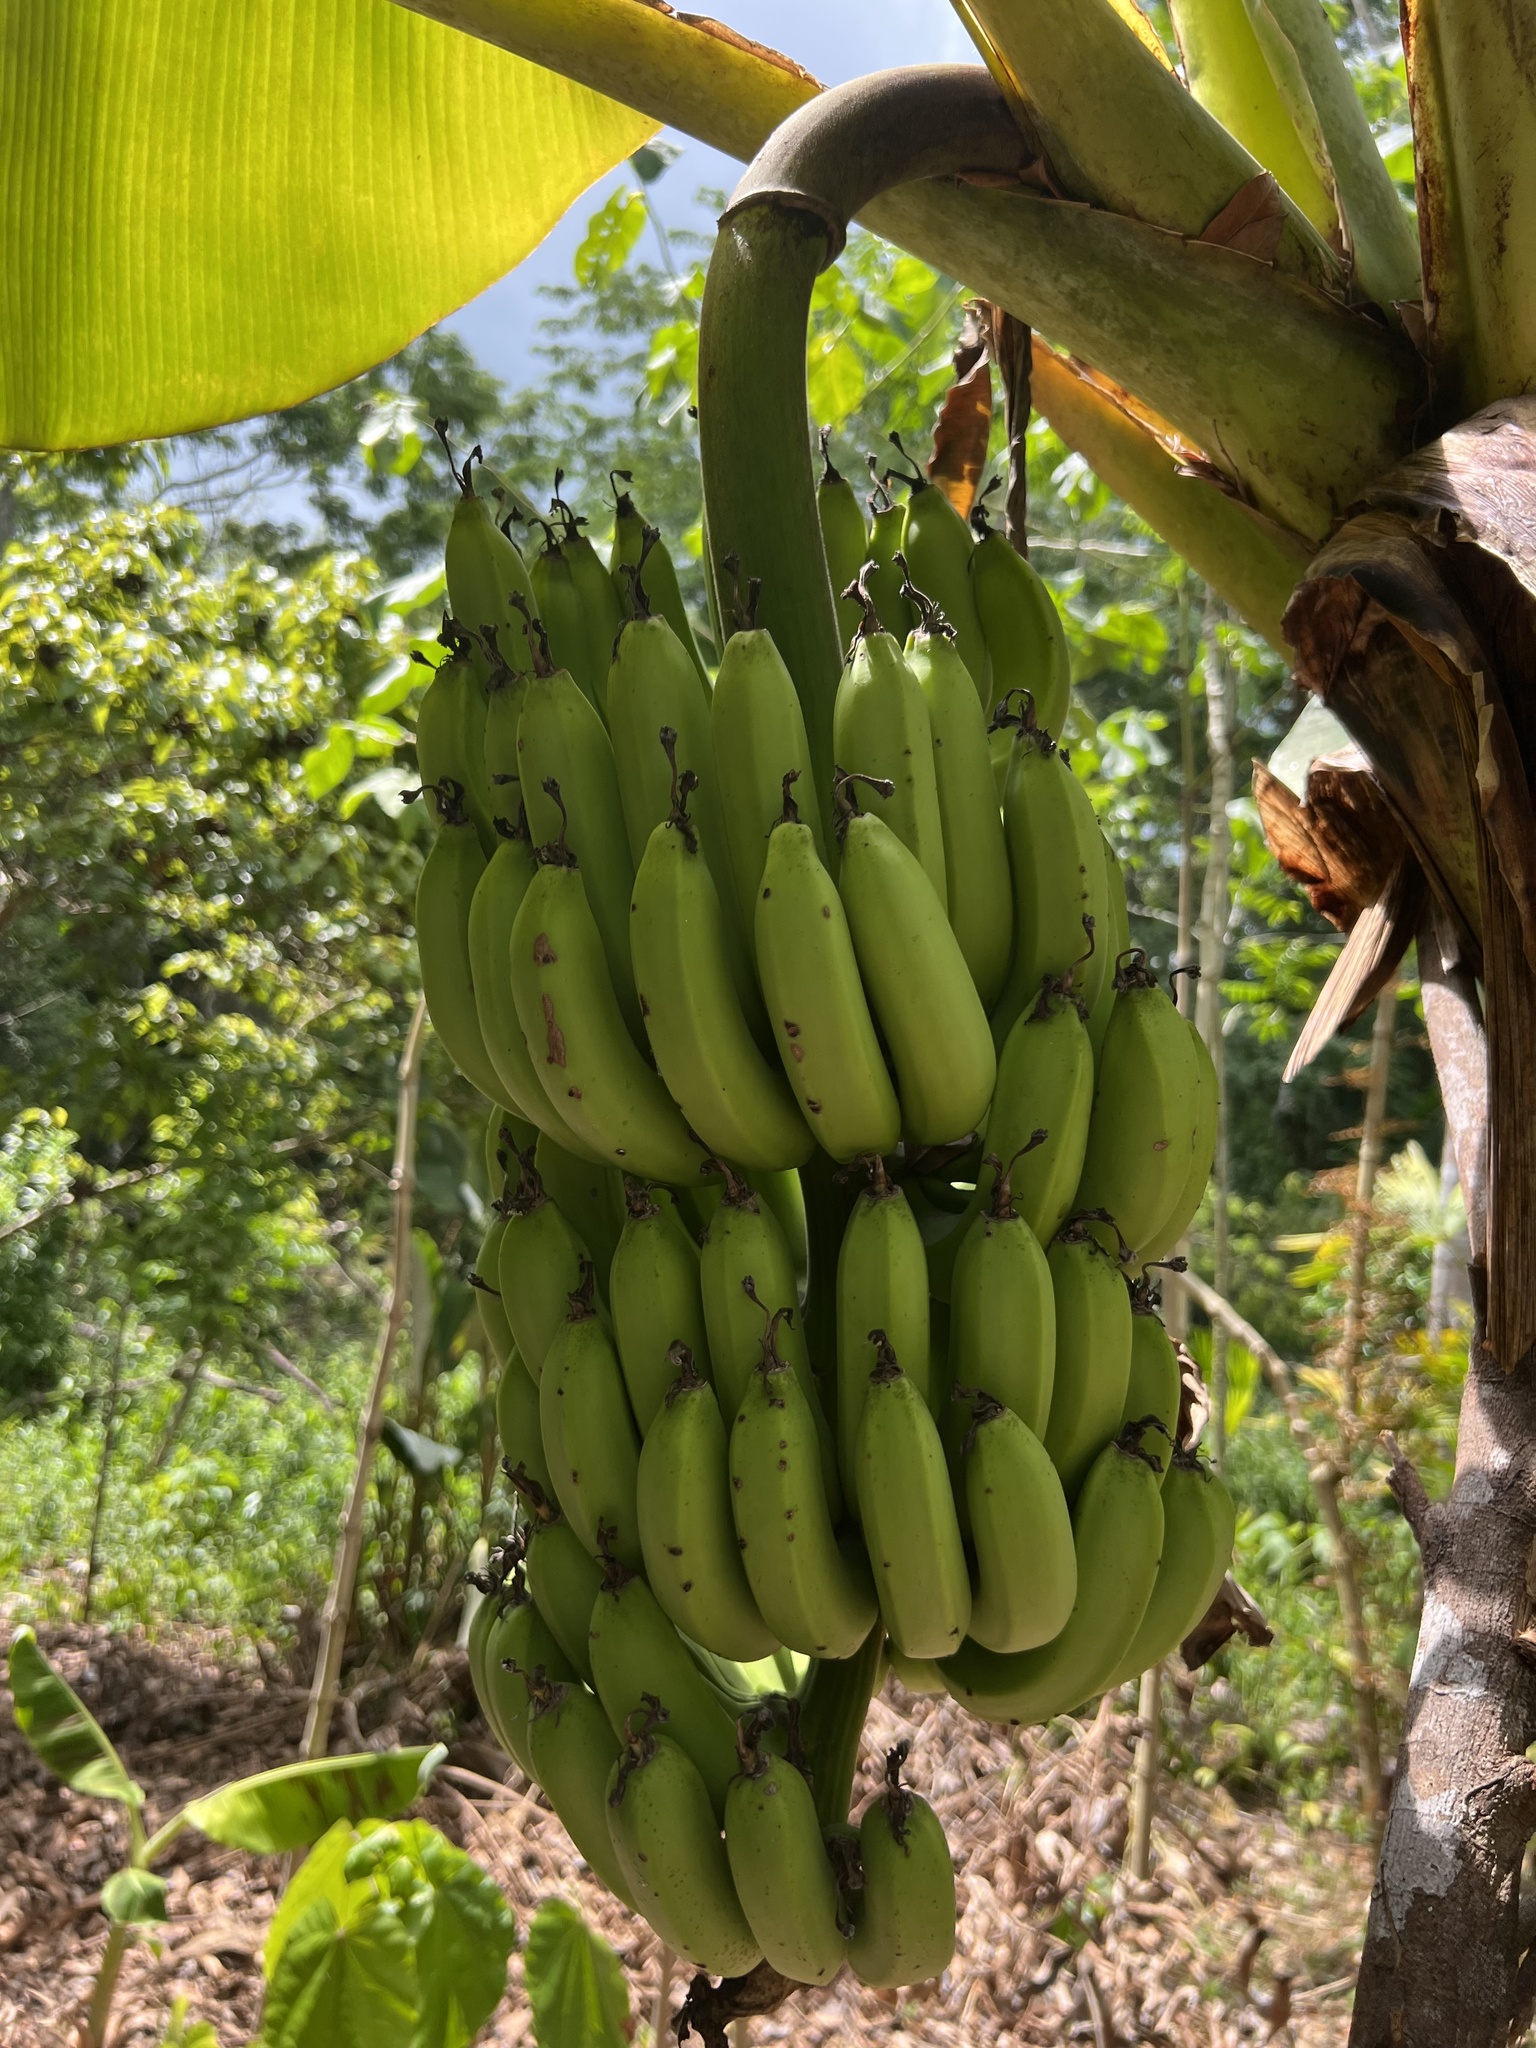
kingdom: Plantae
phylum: Tracheophyta
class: Liliopsida
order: Zingiberales
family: Musaceae
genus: Musa
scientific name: Musa acuminata
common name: Edible banana
